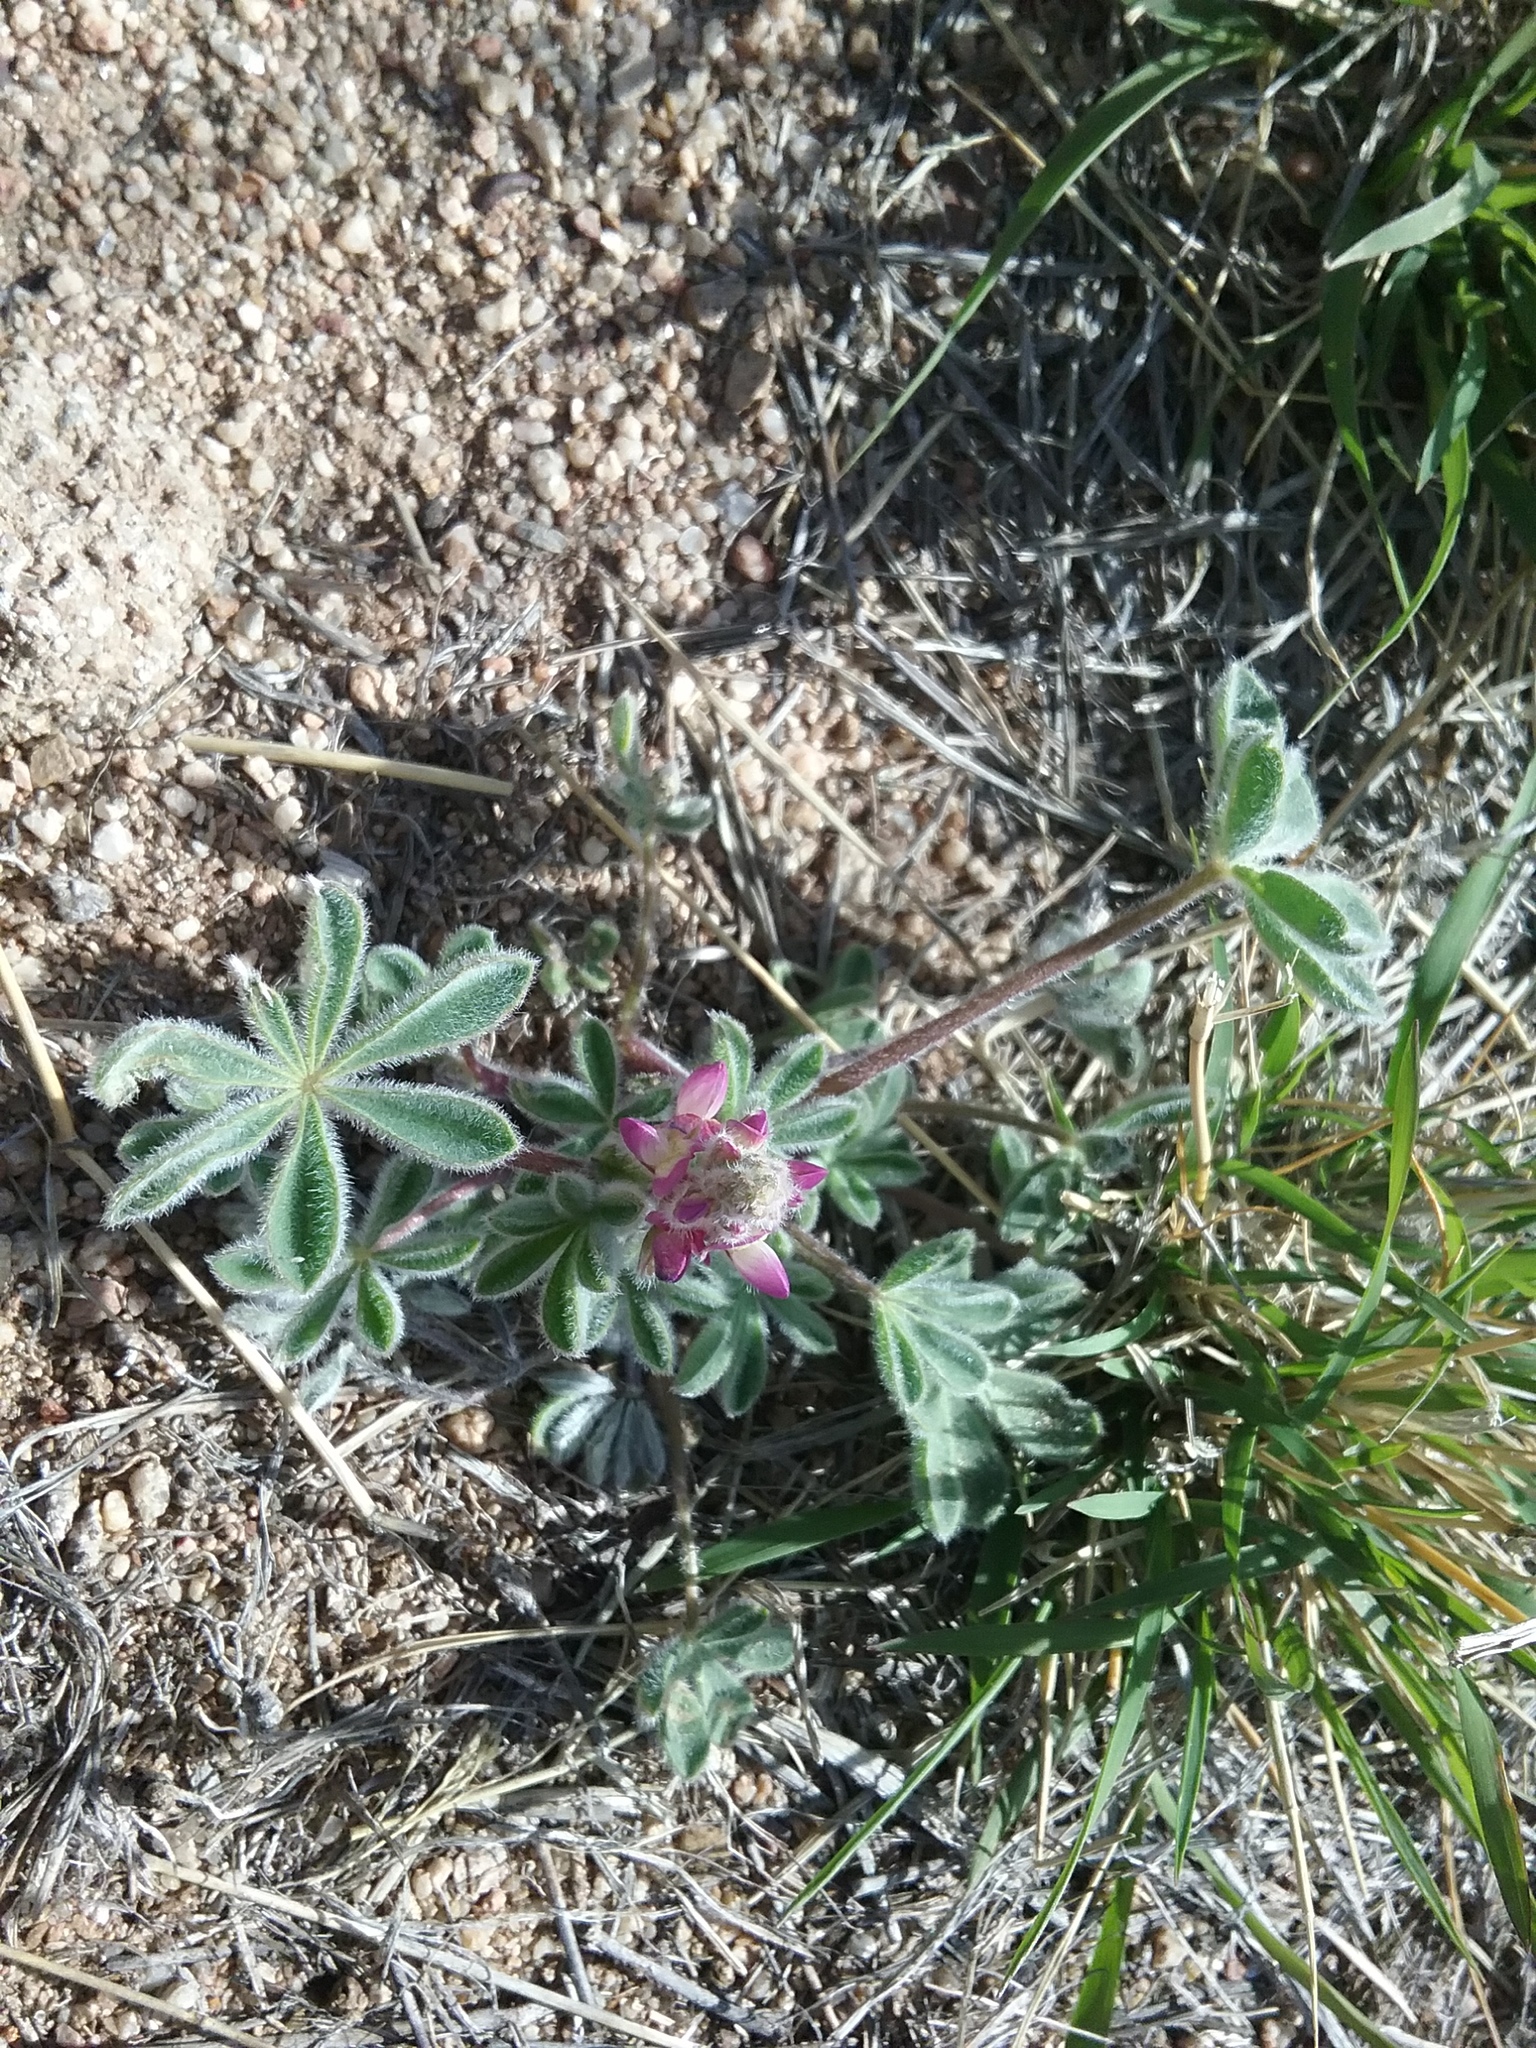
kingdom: Plantae
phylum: Tracheophyta
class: Magnoliopsida
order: Fabales
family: Fabaceae
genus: Lupinus
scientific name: Lupinus concinnus
